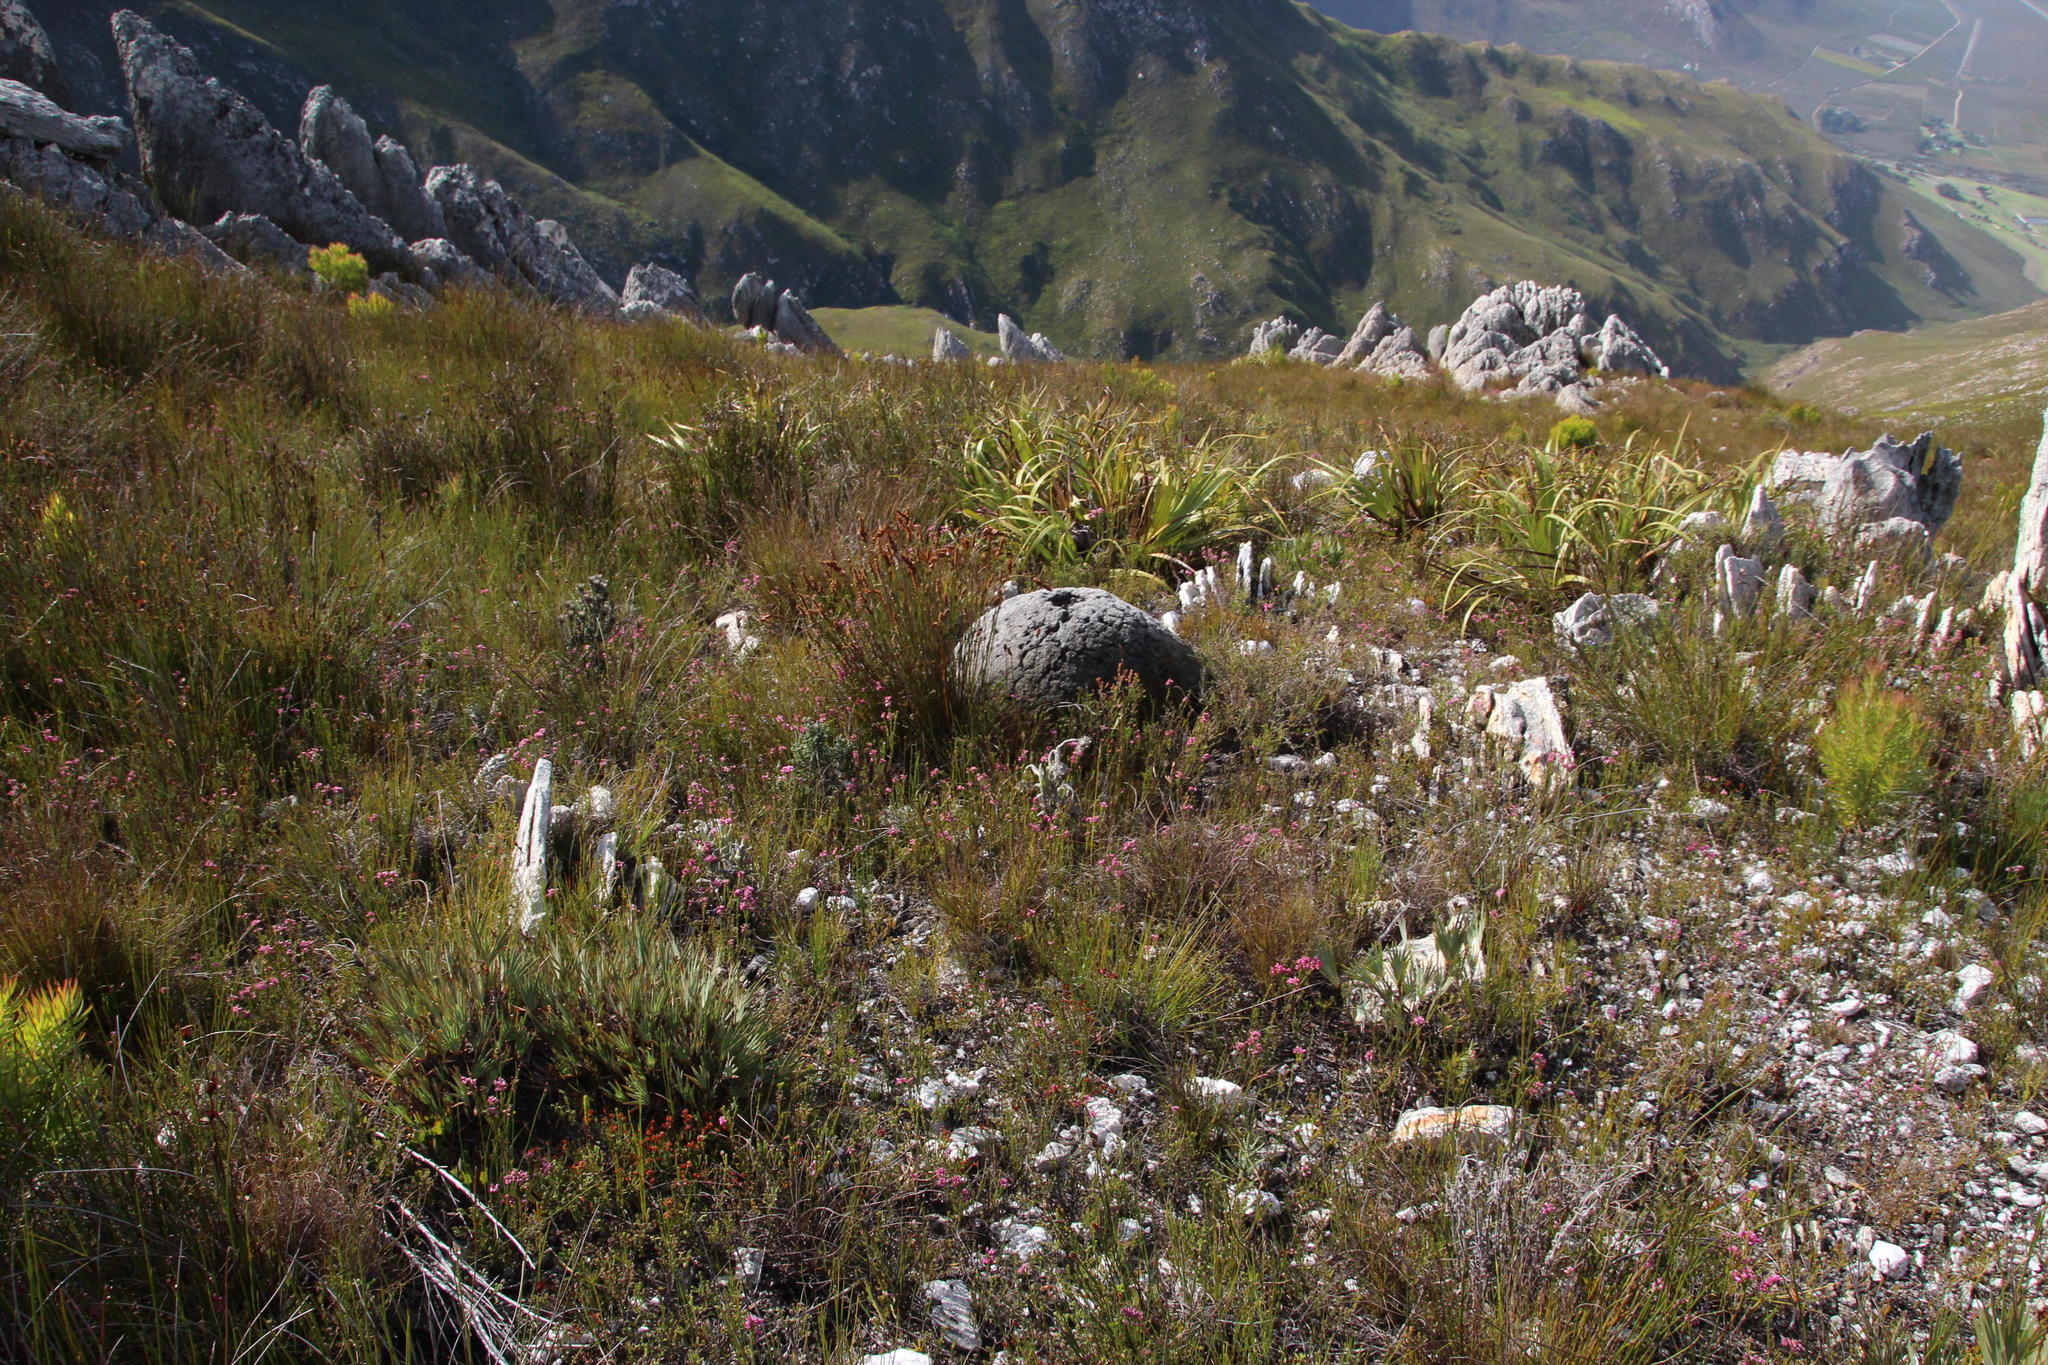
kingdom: Plantae
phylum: Tracheophyta
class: Magnoliopsida
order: Ericales
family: Ericaceae
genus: Erica
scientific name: Erica corifolia
